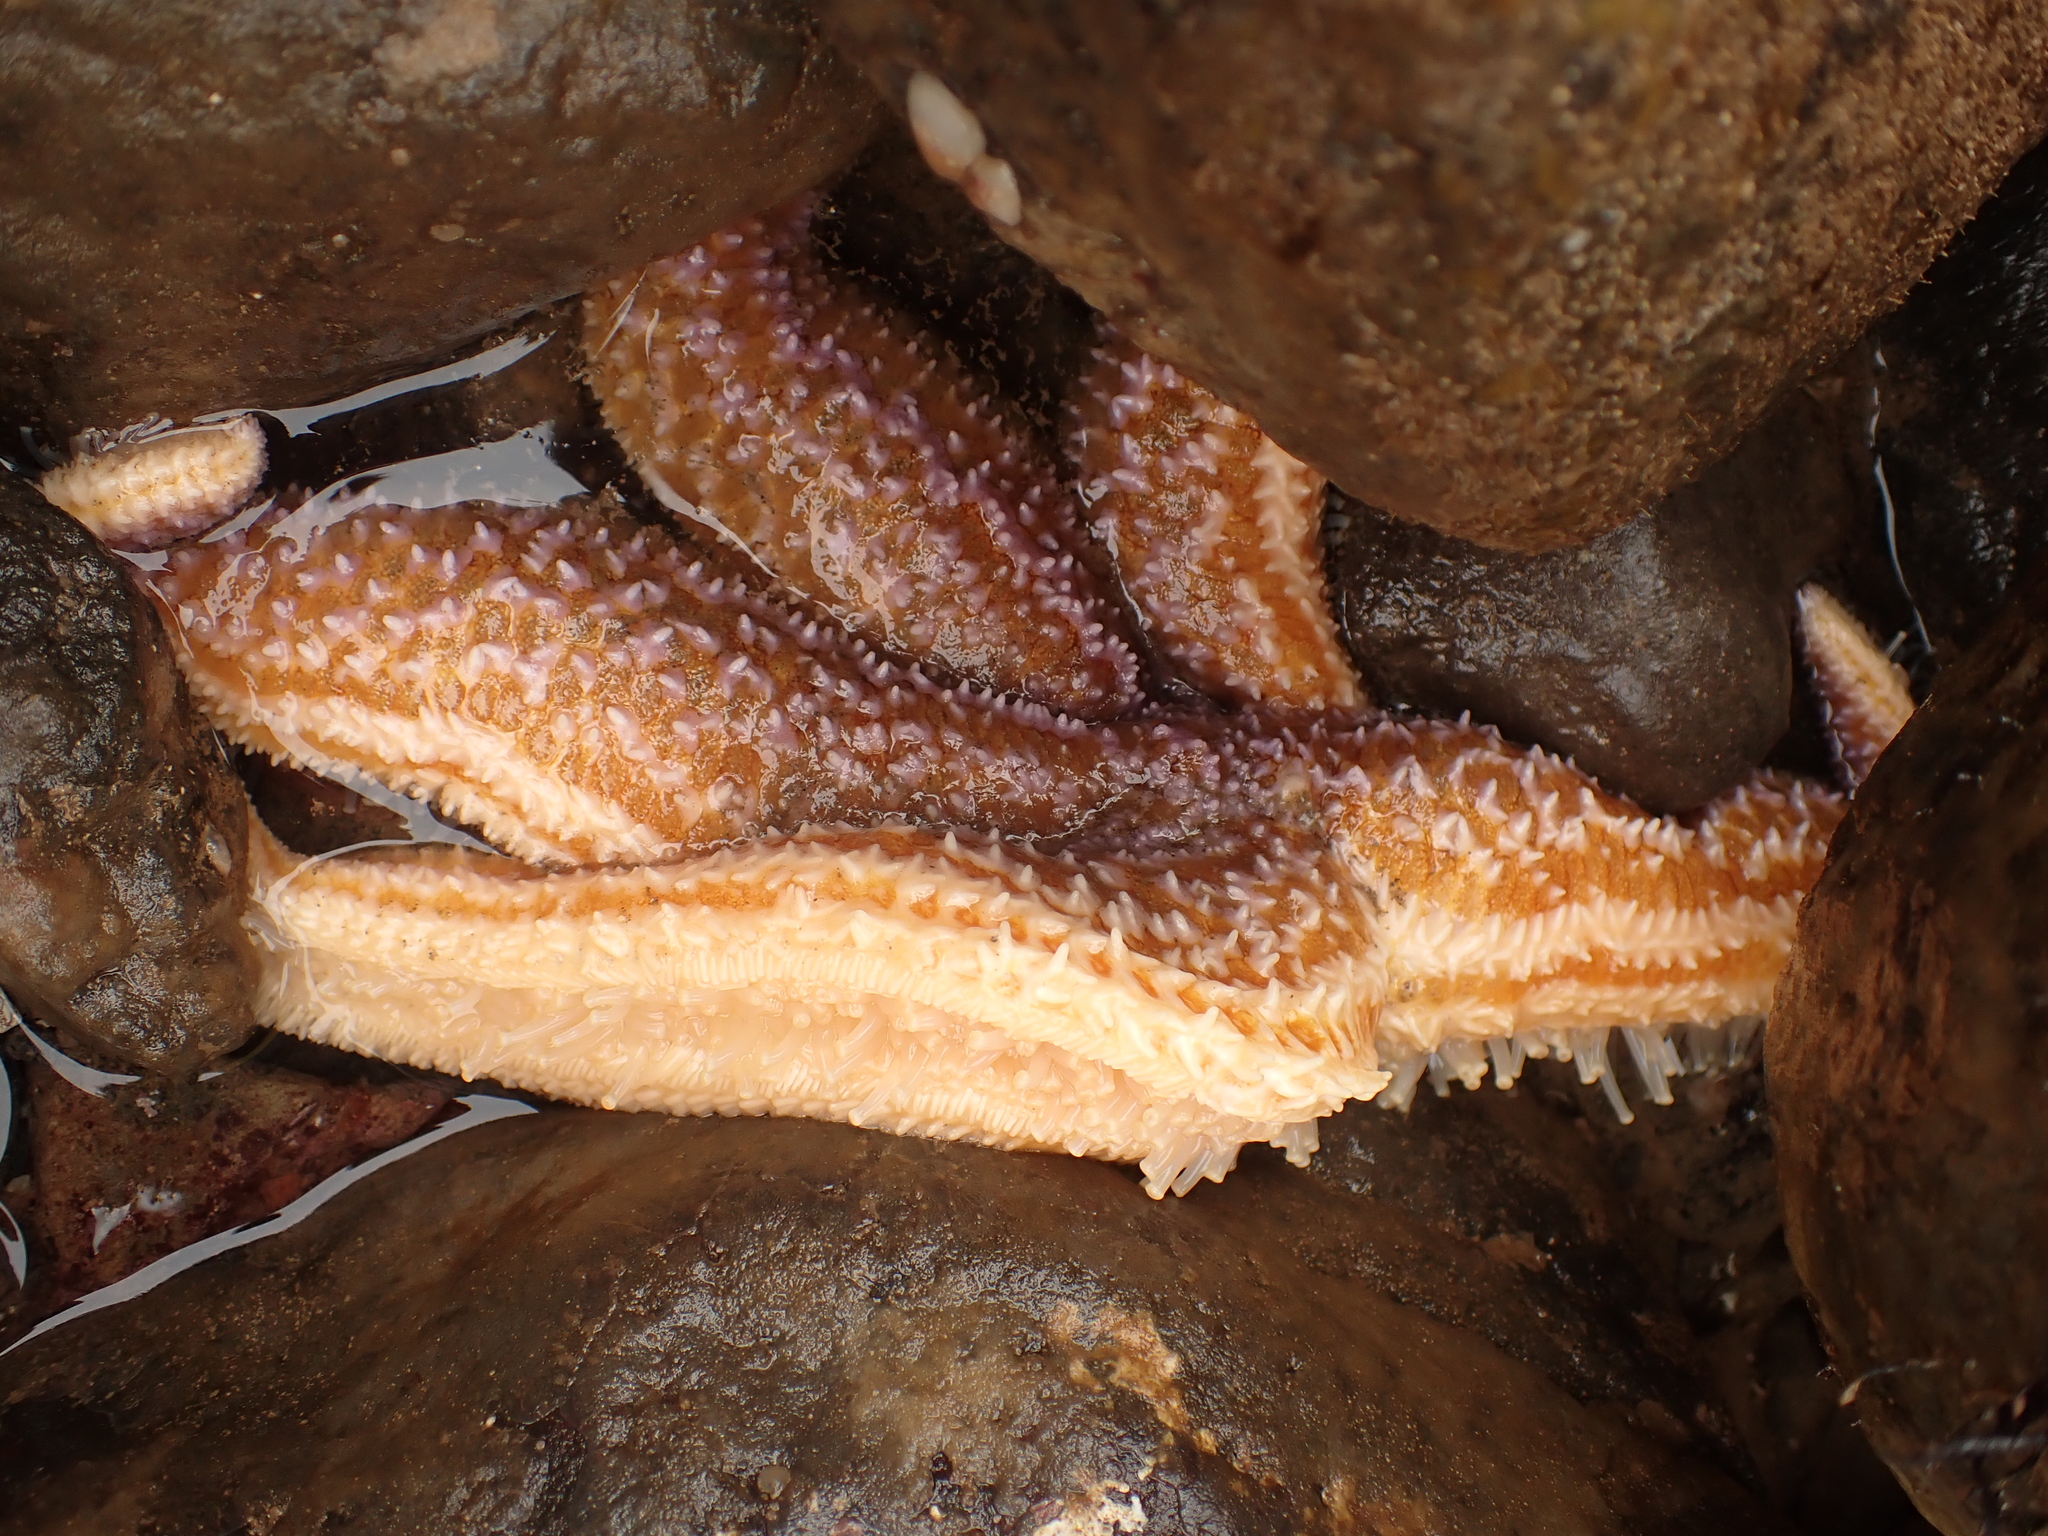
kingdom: Animalia
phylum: Echinodermata
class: Asteroidea
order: Forcipulatida
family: Asteriidae
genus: Asterias
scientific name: Asterias rubens
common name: Common starfish
